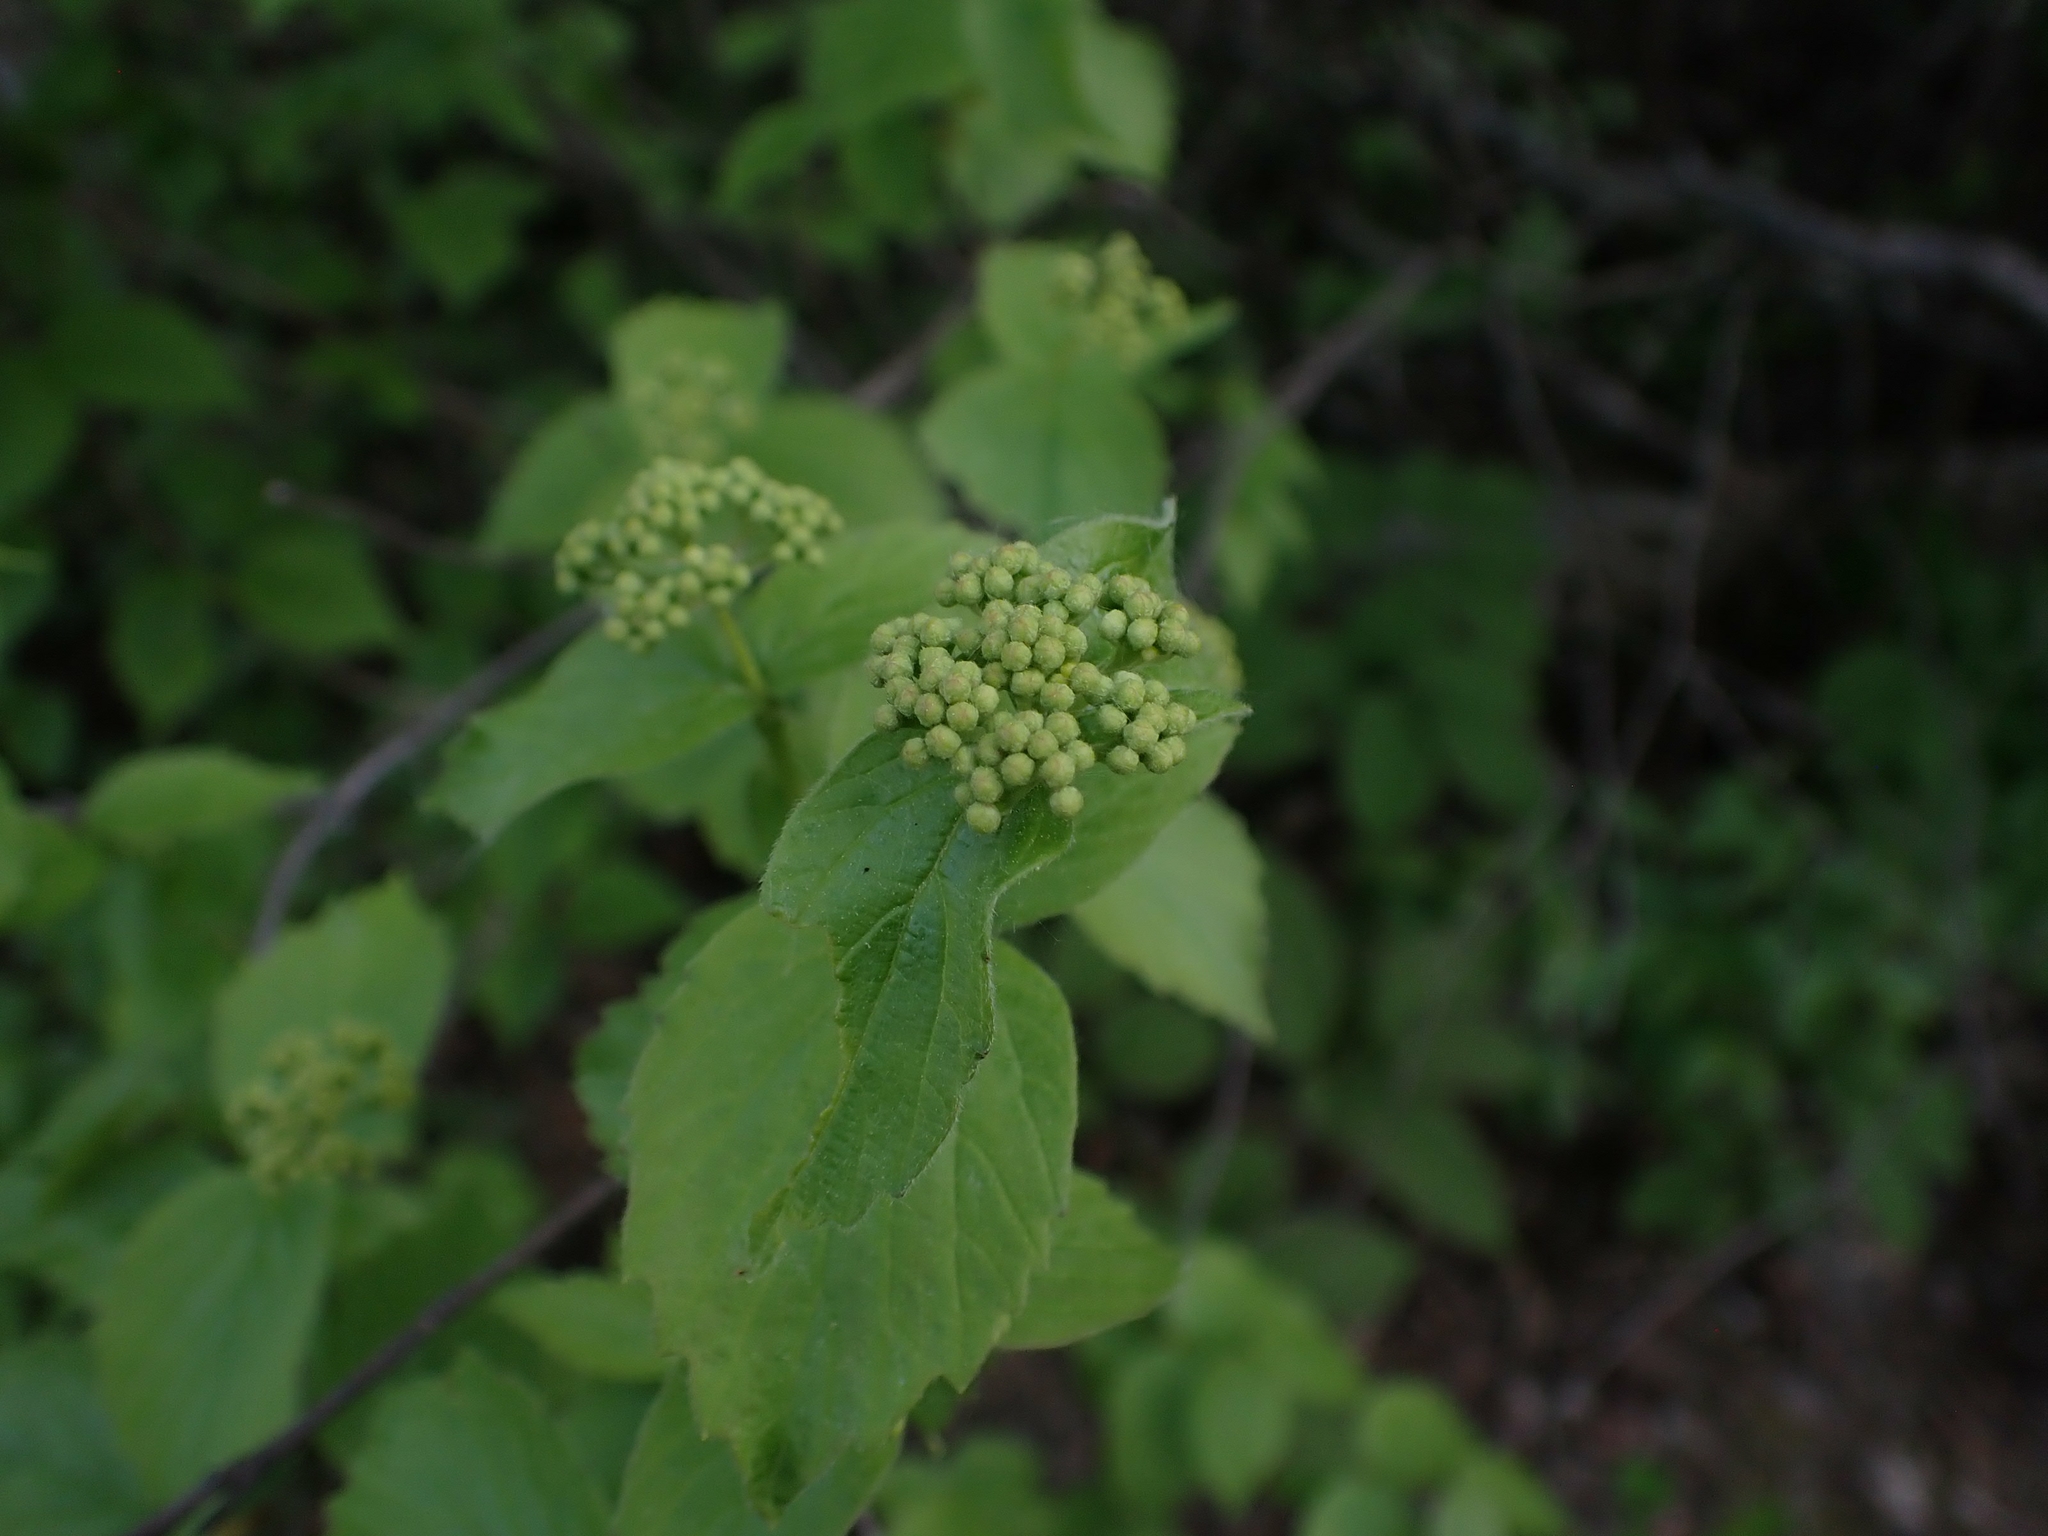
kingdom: Plantae
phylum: Tracheophyta
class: Magnoliopsida
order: Dipsacales
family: Viburnaceae
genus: Viburnum
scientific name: Viburnum rafinesqueanum
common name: Downy arrow-wood
